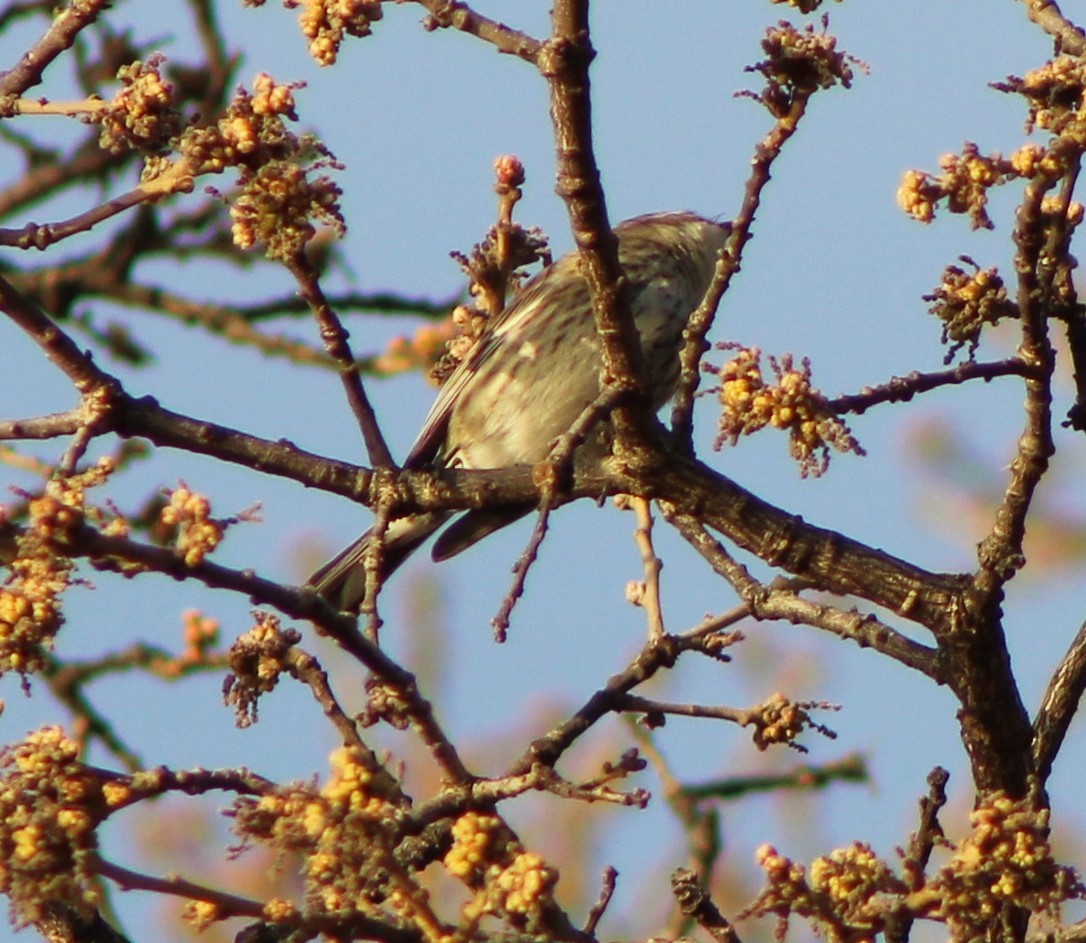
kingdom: Animalia
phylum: Chordata
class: Aves
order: Passeriformes
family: Parulidae
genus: Setophaga
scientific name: Setophaga coronata
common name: Myrtle warbler
